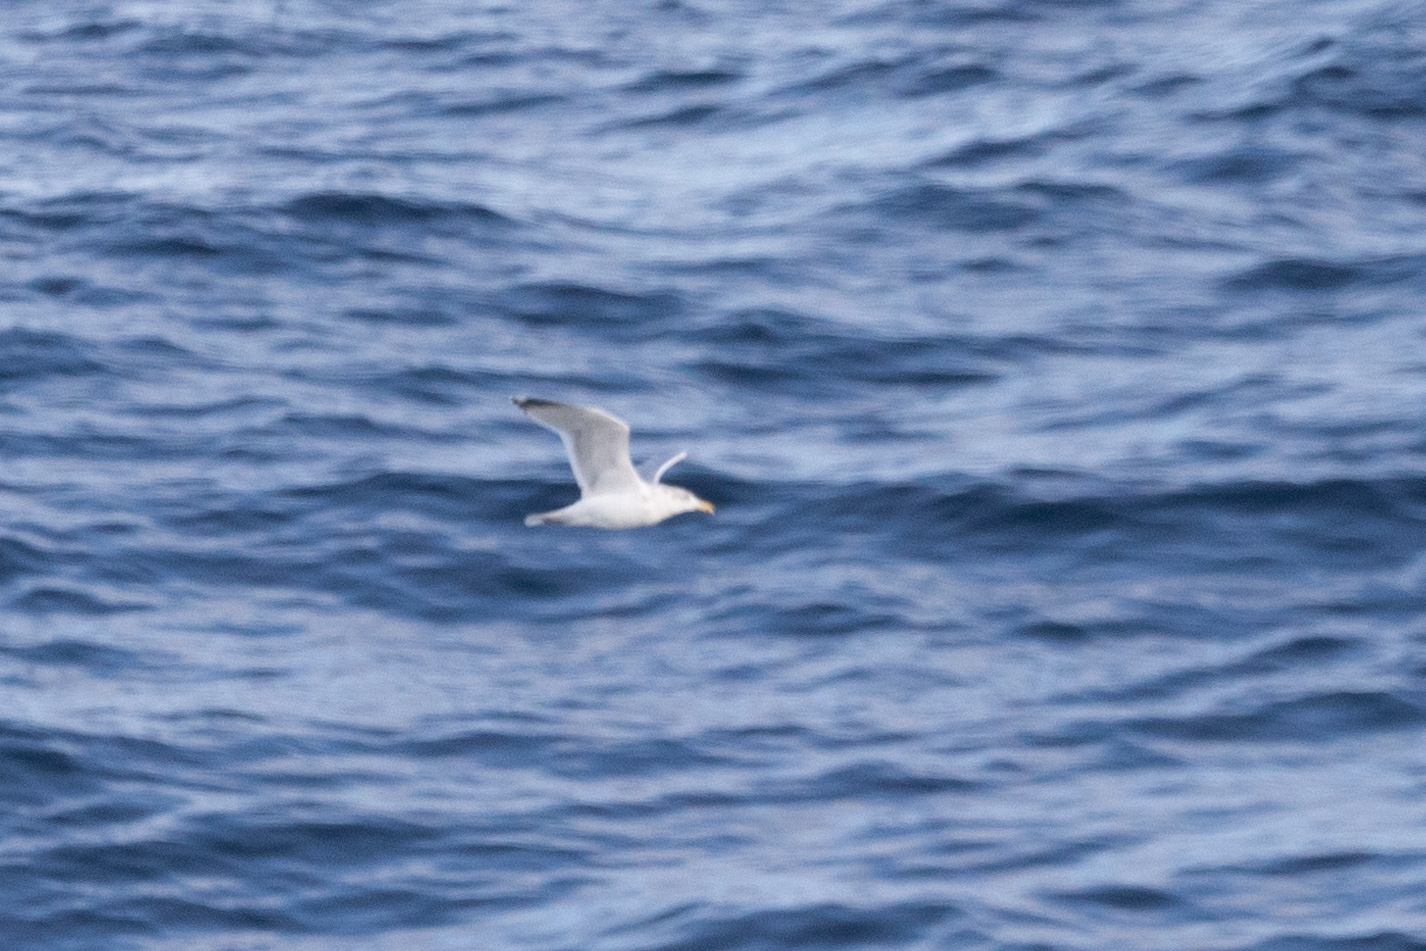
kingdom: Animalia
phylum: Chordata
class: Aves
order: Charadriiformes
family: Laridae
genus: Larus
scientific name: Larus argentatus
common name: Herring gull
